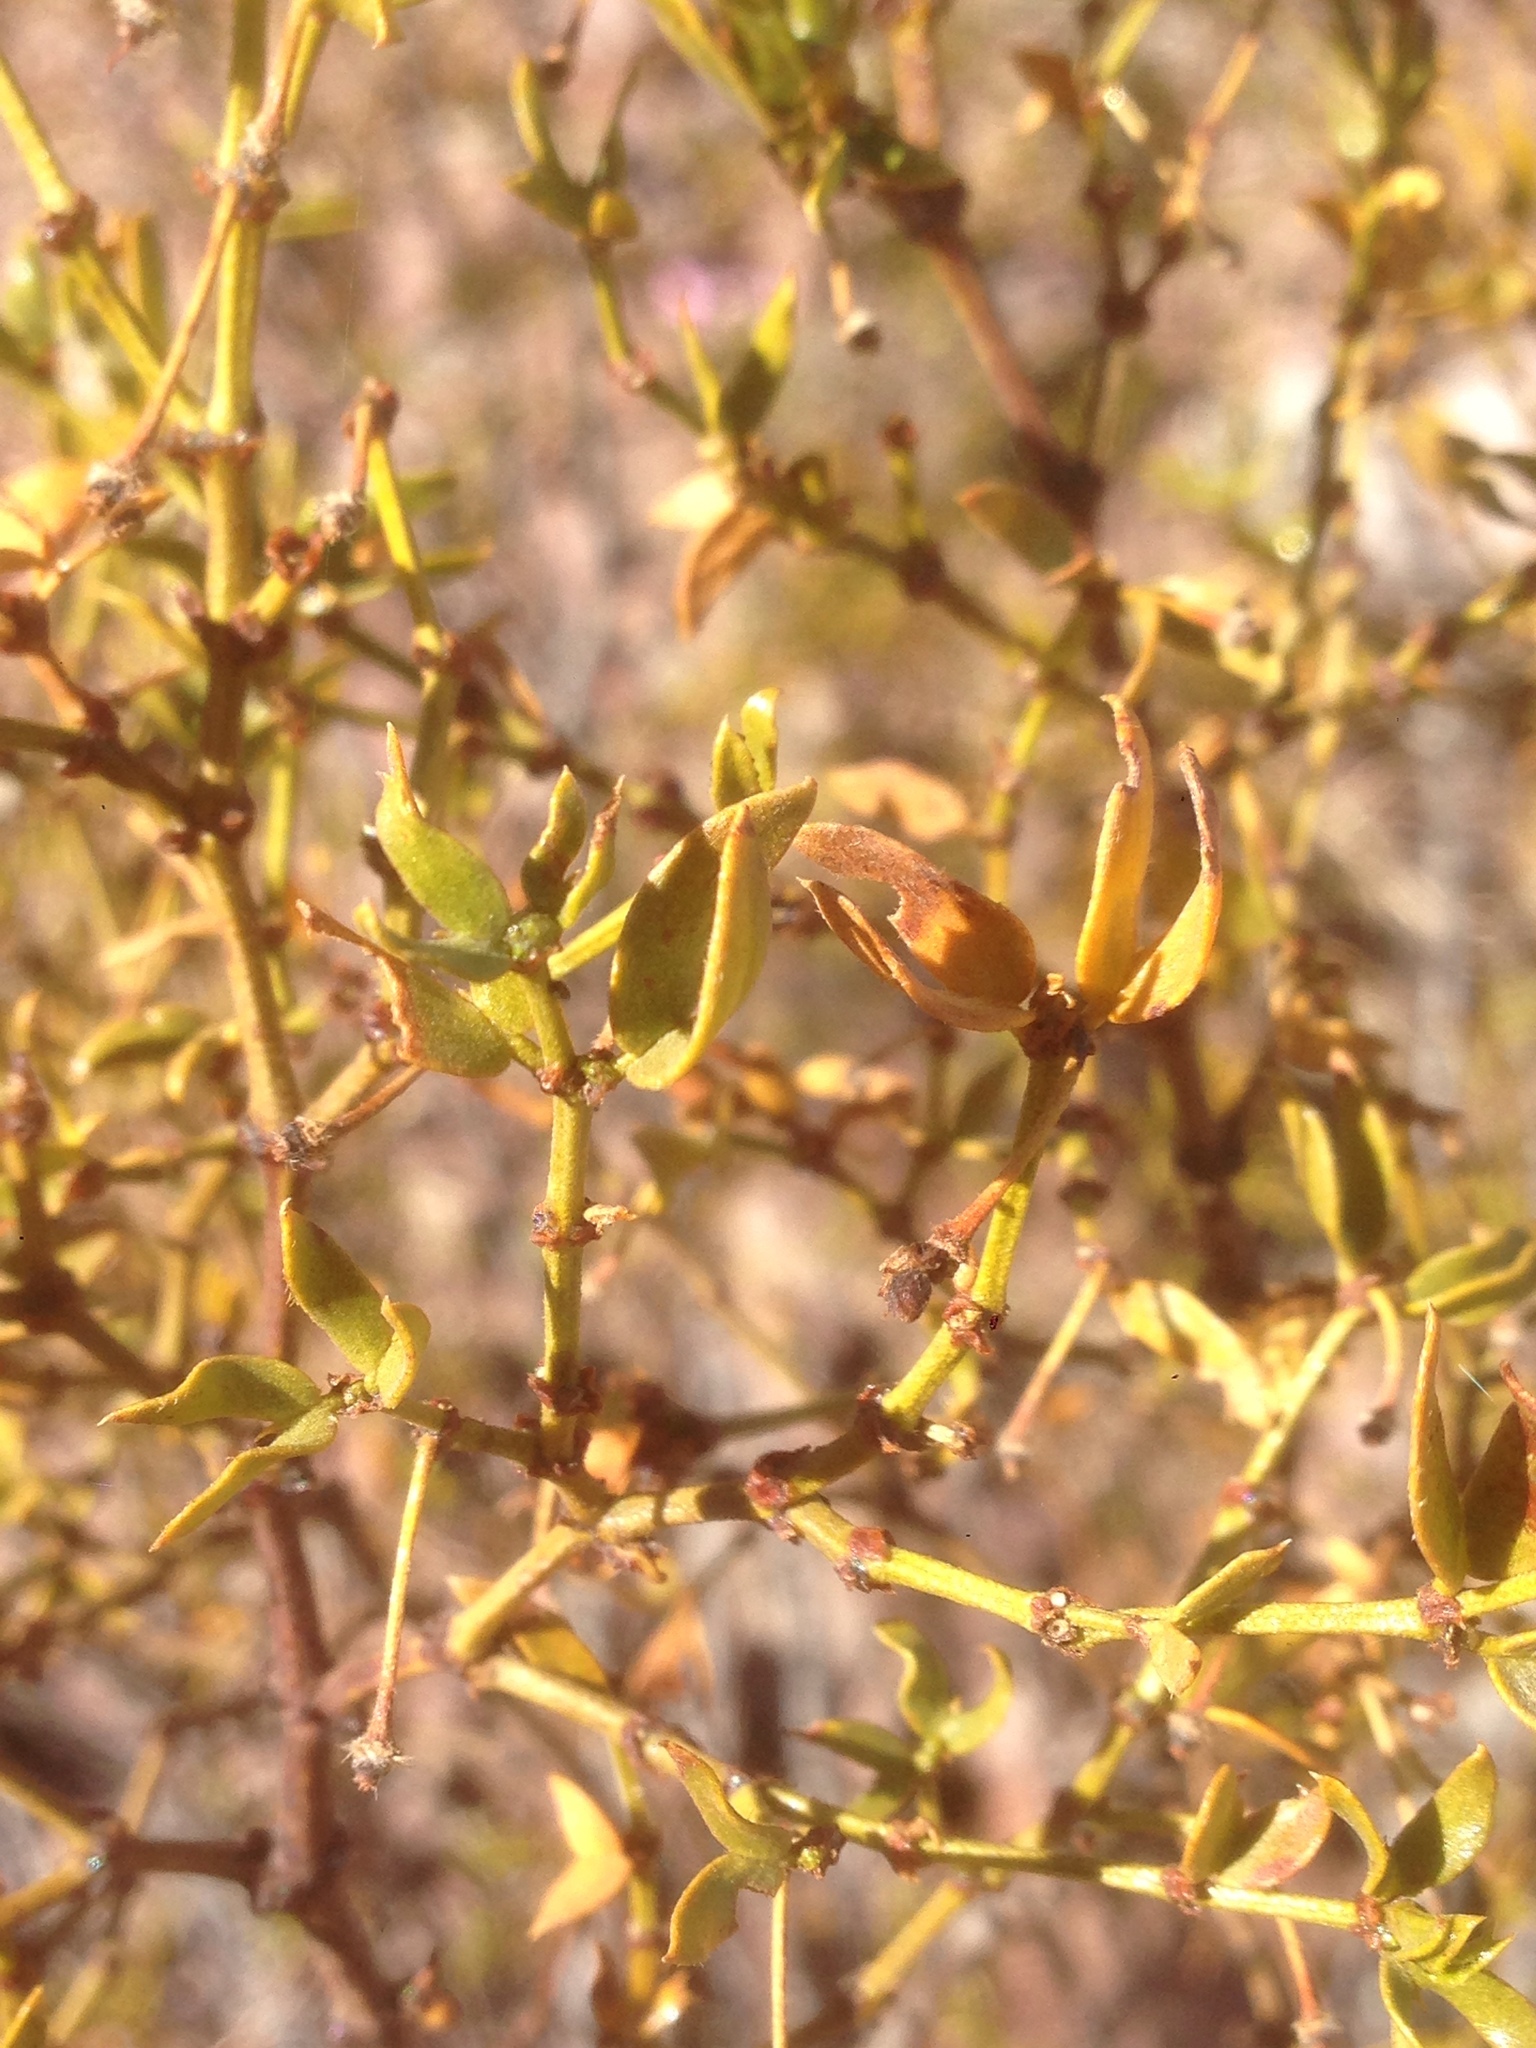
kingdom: Plantae
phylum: Tracheophyta
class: Magnoliopsida
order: Zygophyllales
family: Zygophyllaceae
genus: Larrea
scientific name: Larrea tridentata
